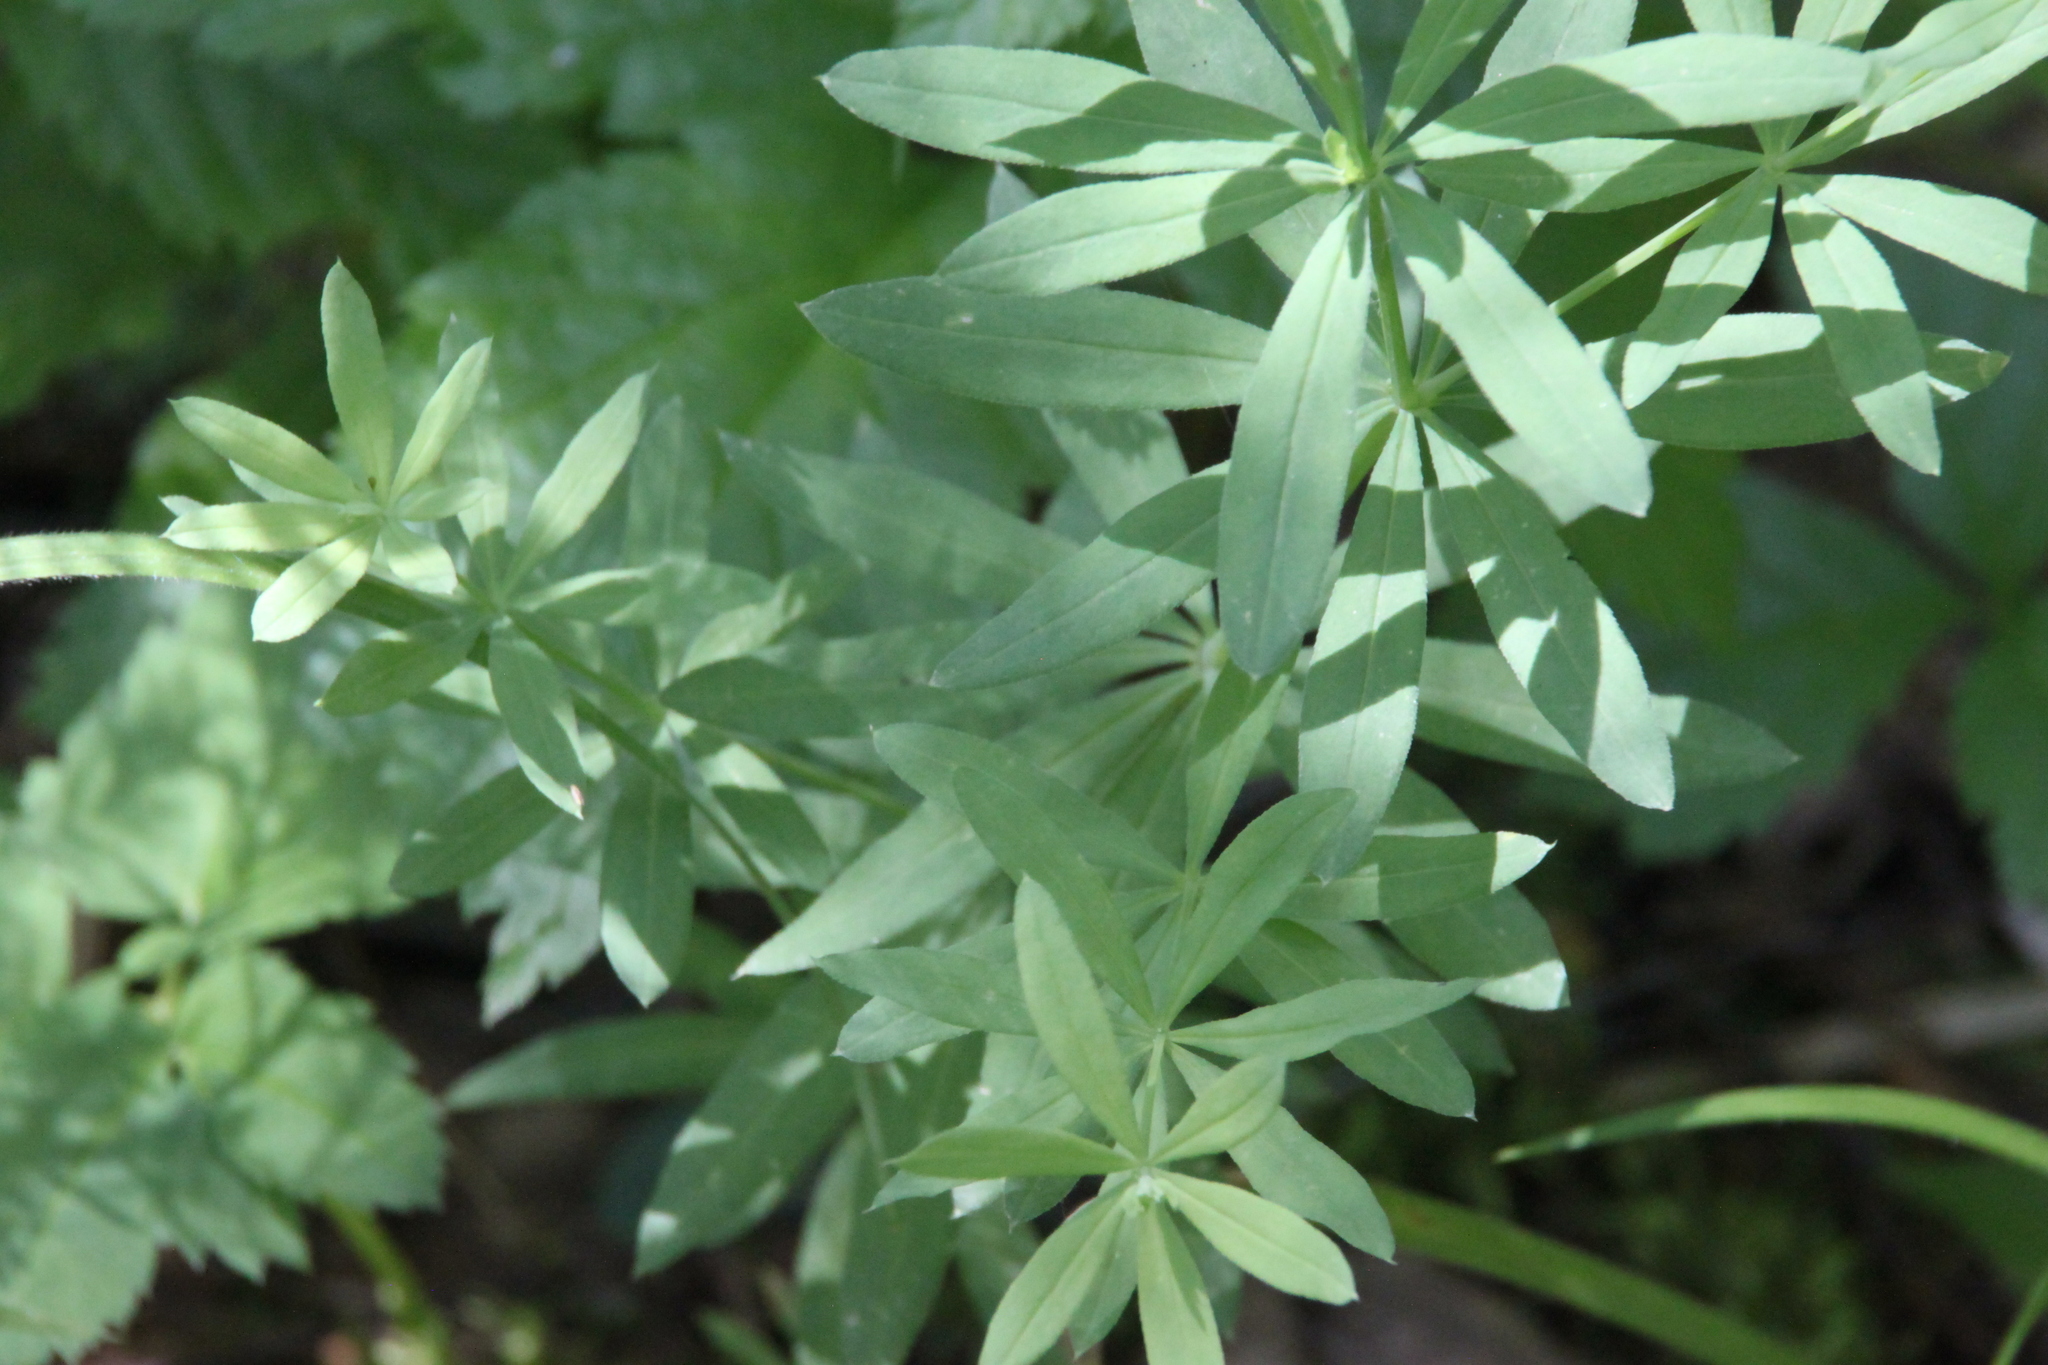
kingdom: Plantae
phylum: Tracheophyta
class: Magnoliopsida
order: Gentianales
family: Rubiaceae
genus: Galium
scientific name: Galium intermedium
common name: Bedstraw
